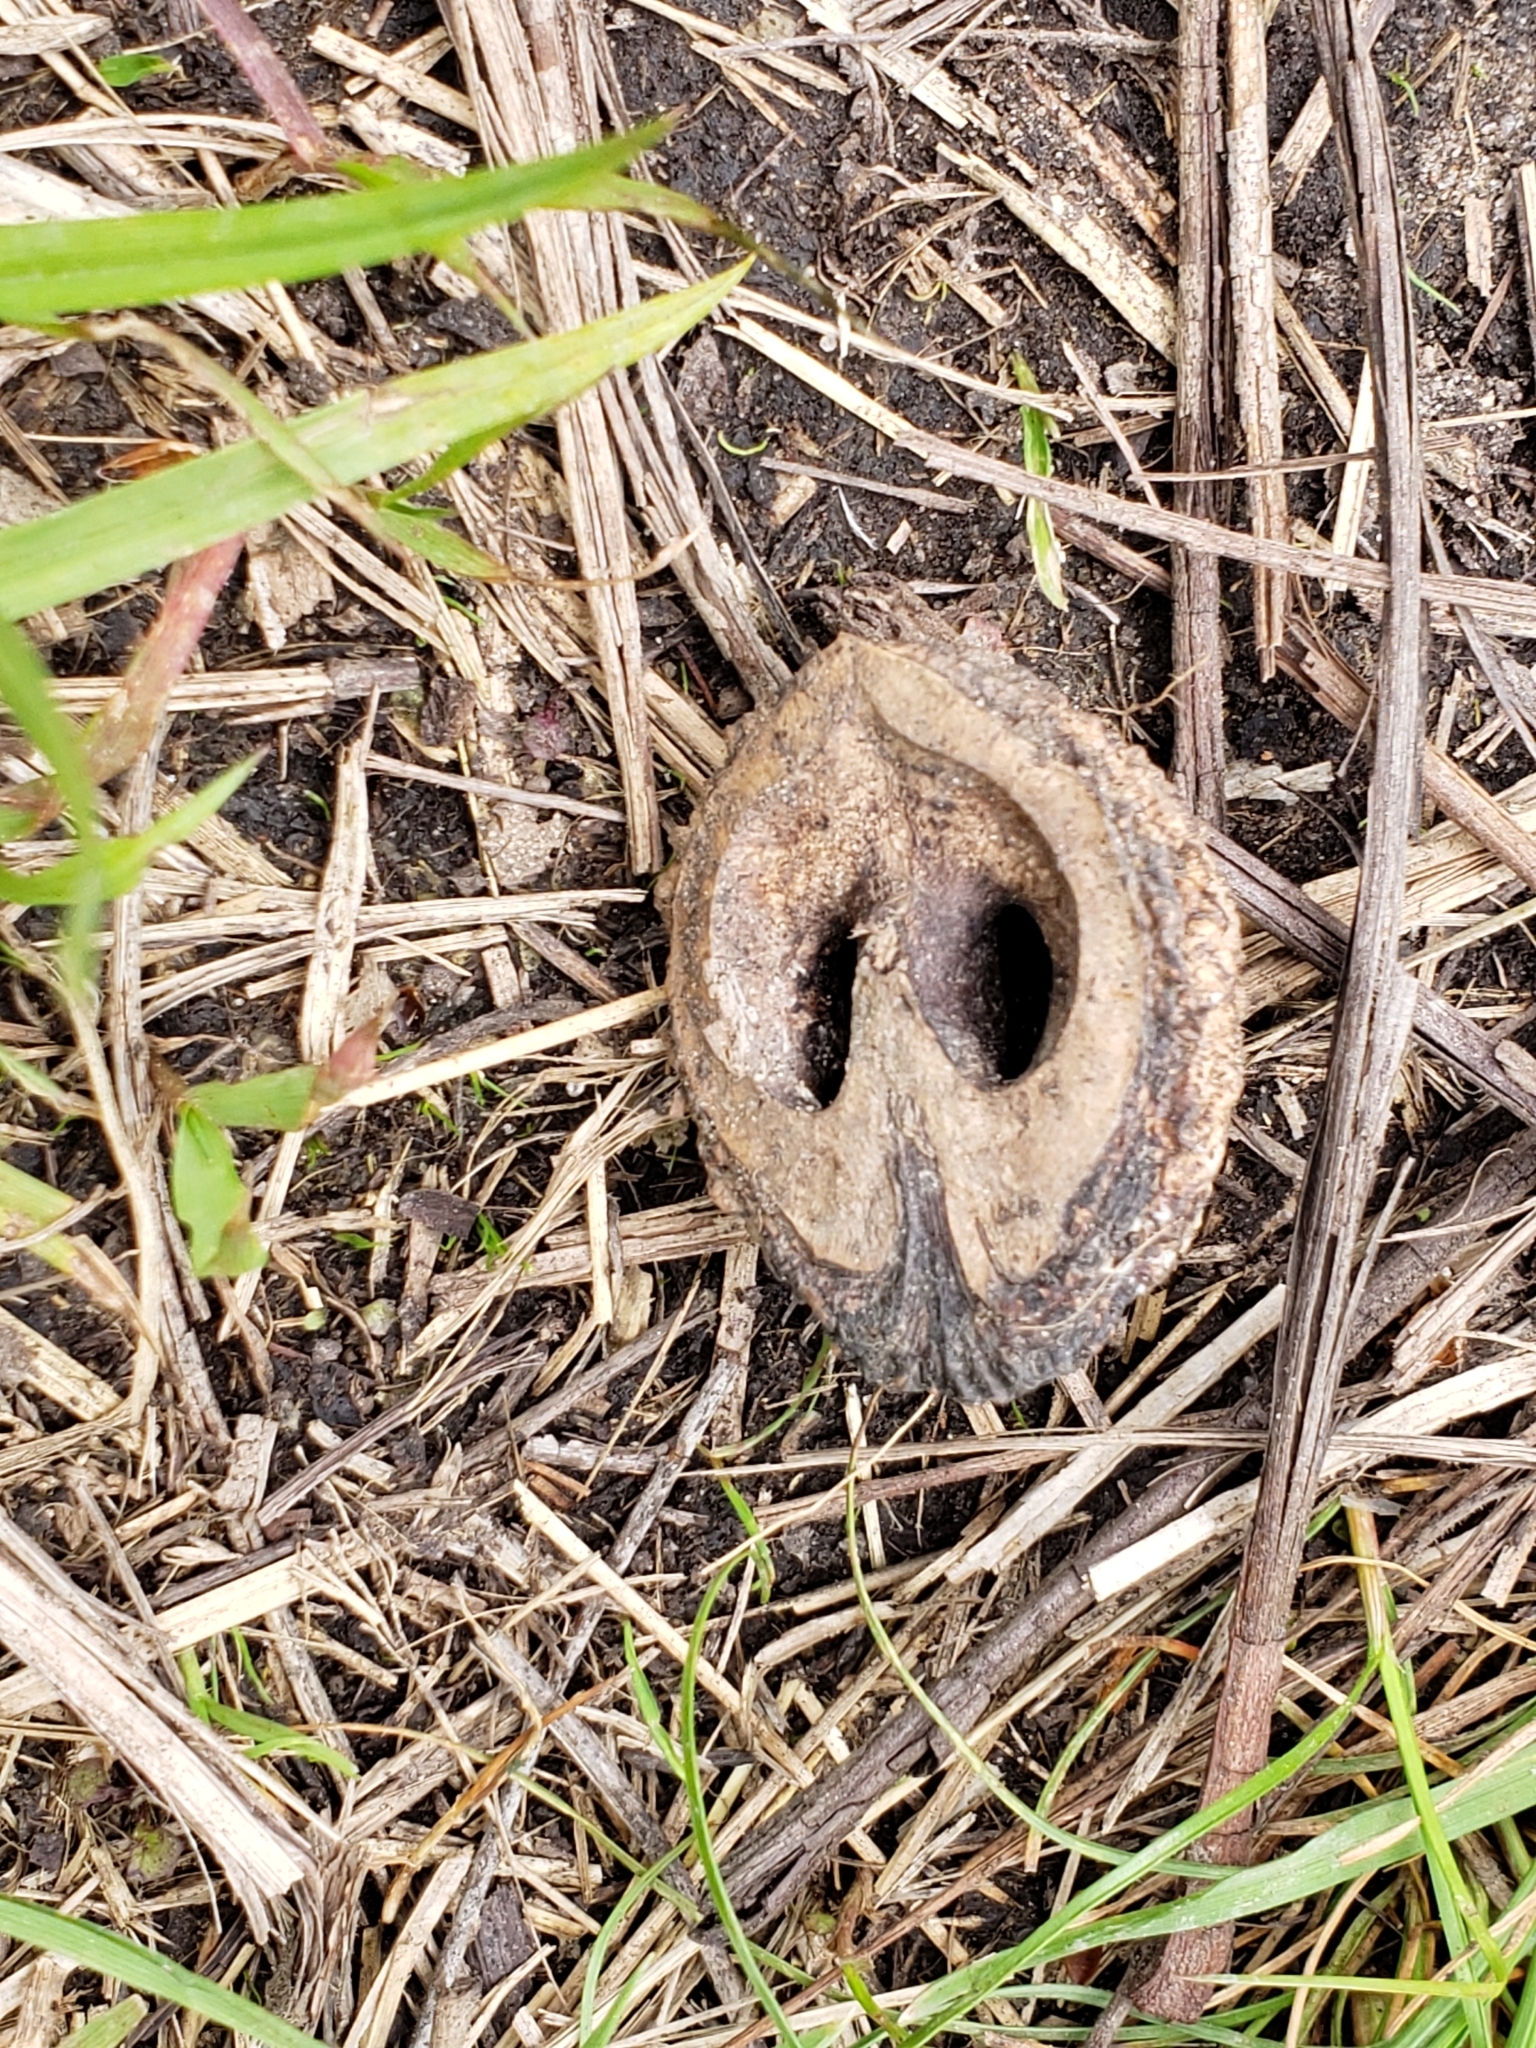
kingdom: Plantae
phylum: Tracheophyta
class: Magnoliopsida
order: Fagales
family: Juglandaceae
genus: Juglans
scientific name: Juglans nigra
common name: Black walnut
